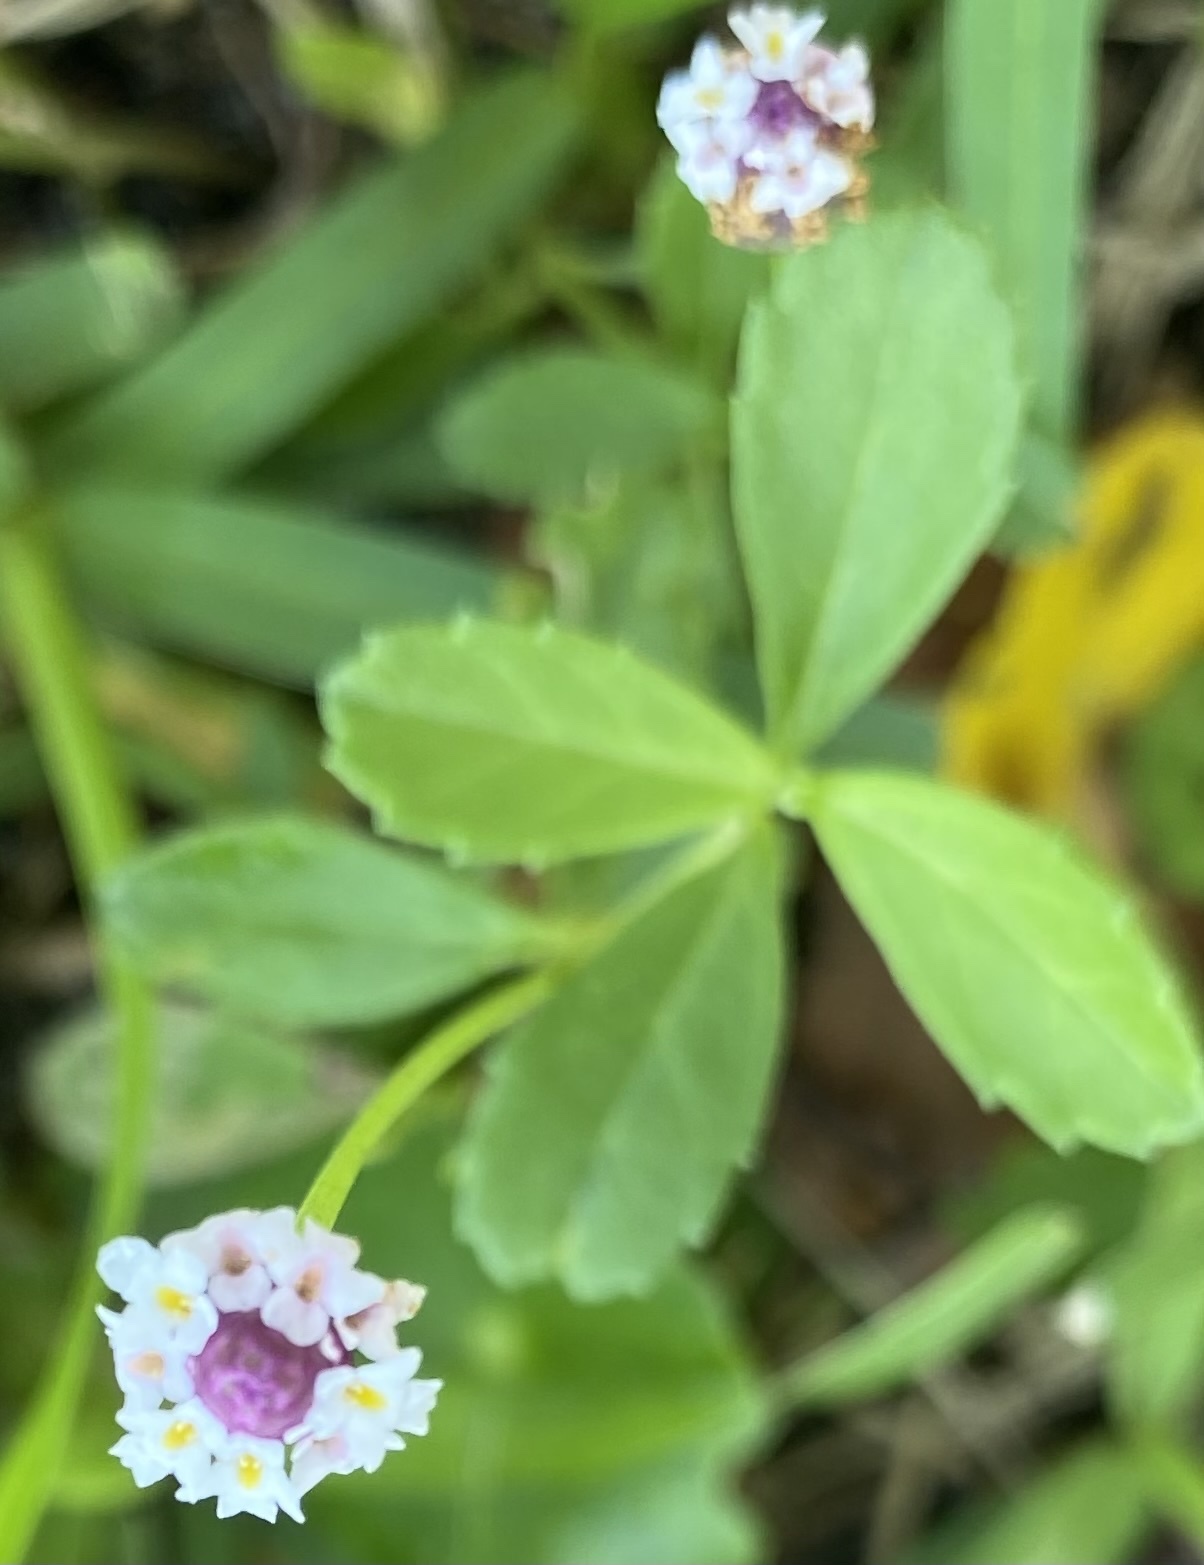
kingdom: Plantae
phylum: Tracheophyta
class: Magnoliopsida
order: Lamiales
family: Verbenaceae
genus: Phyla
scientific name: Phyla nodiflora
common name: Frogfruit
